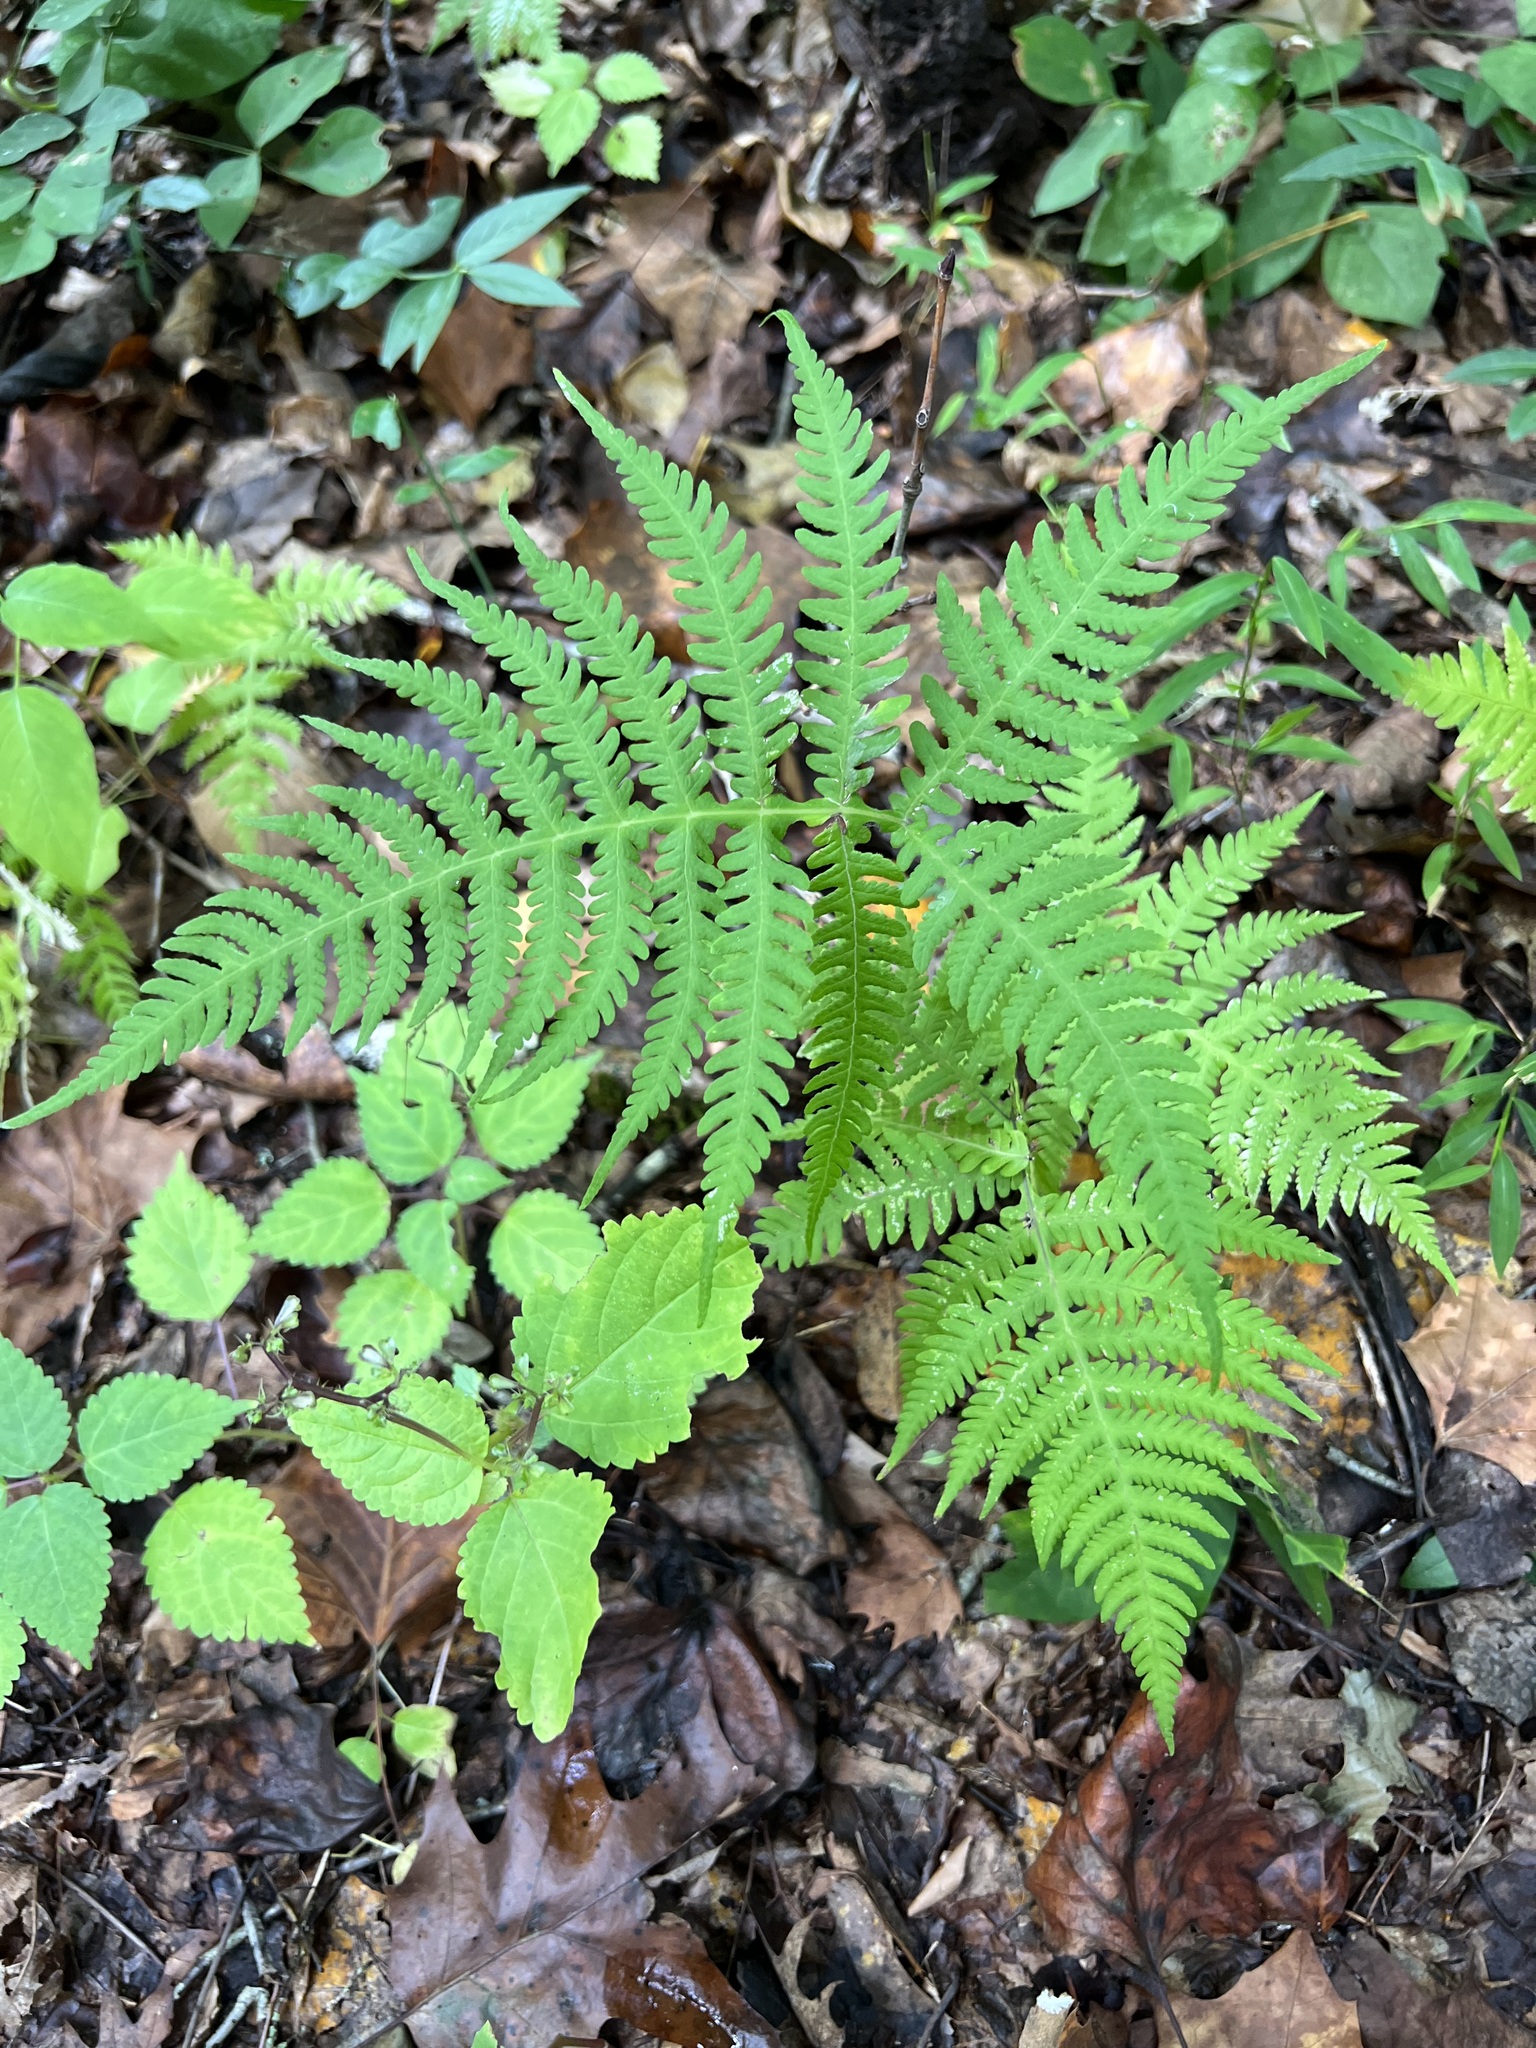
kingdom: Plantae
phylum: Tracheophyta
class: Polypodiopsida
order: Polypodiales
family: Thelypteridaceae
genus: Phegopteris
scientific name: Phegopteris hexagonoptera
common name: Broad beech fern
